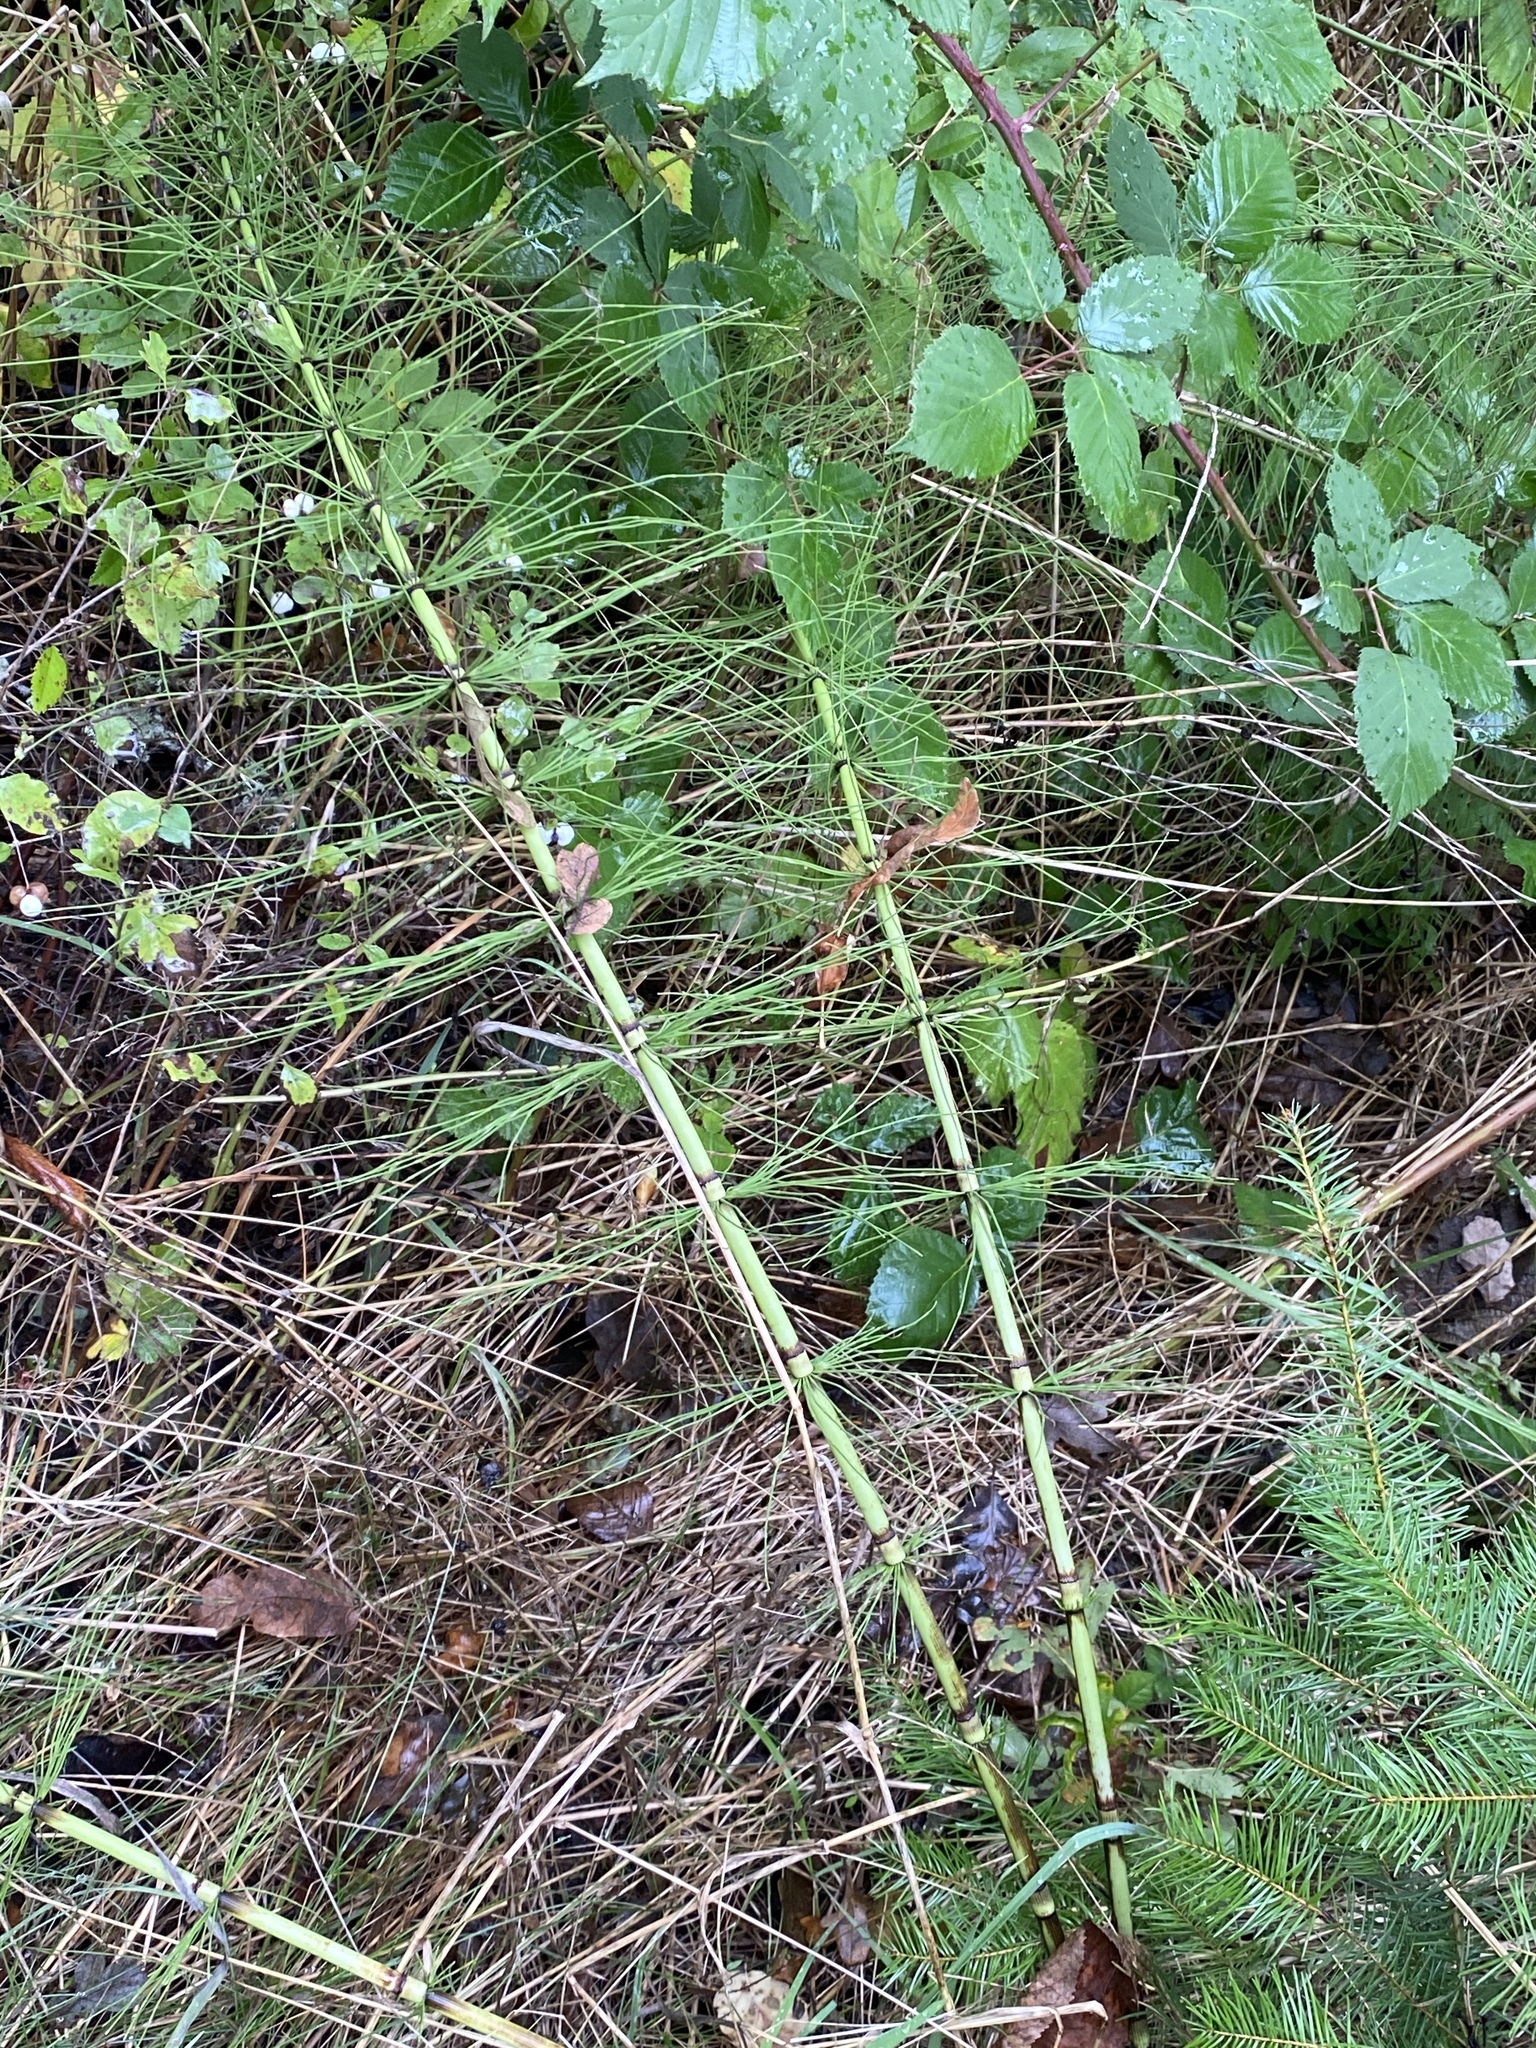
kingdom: Plantae
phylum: Tracheophyta
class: Polypodiopsida
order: Equisetales
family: Equisetaceae
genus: Equisetum
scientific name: Equisetum braunii
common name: Braun's horsetail
